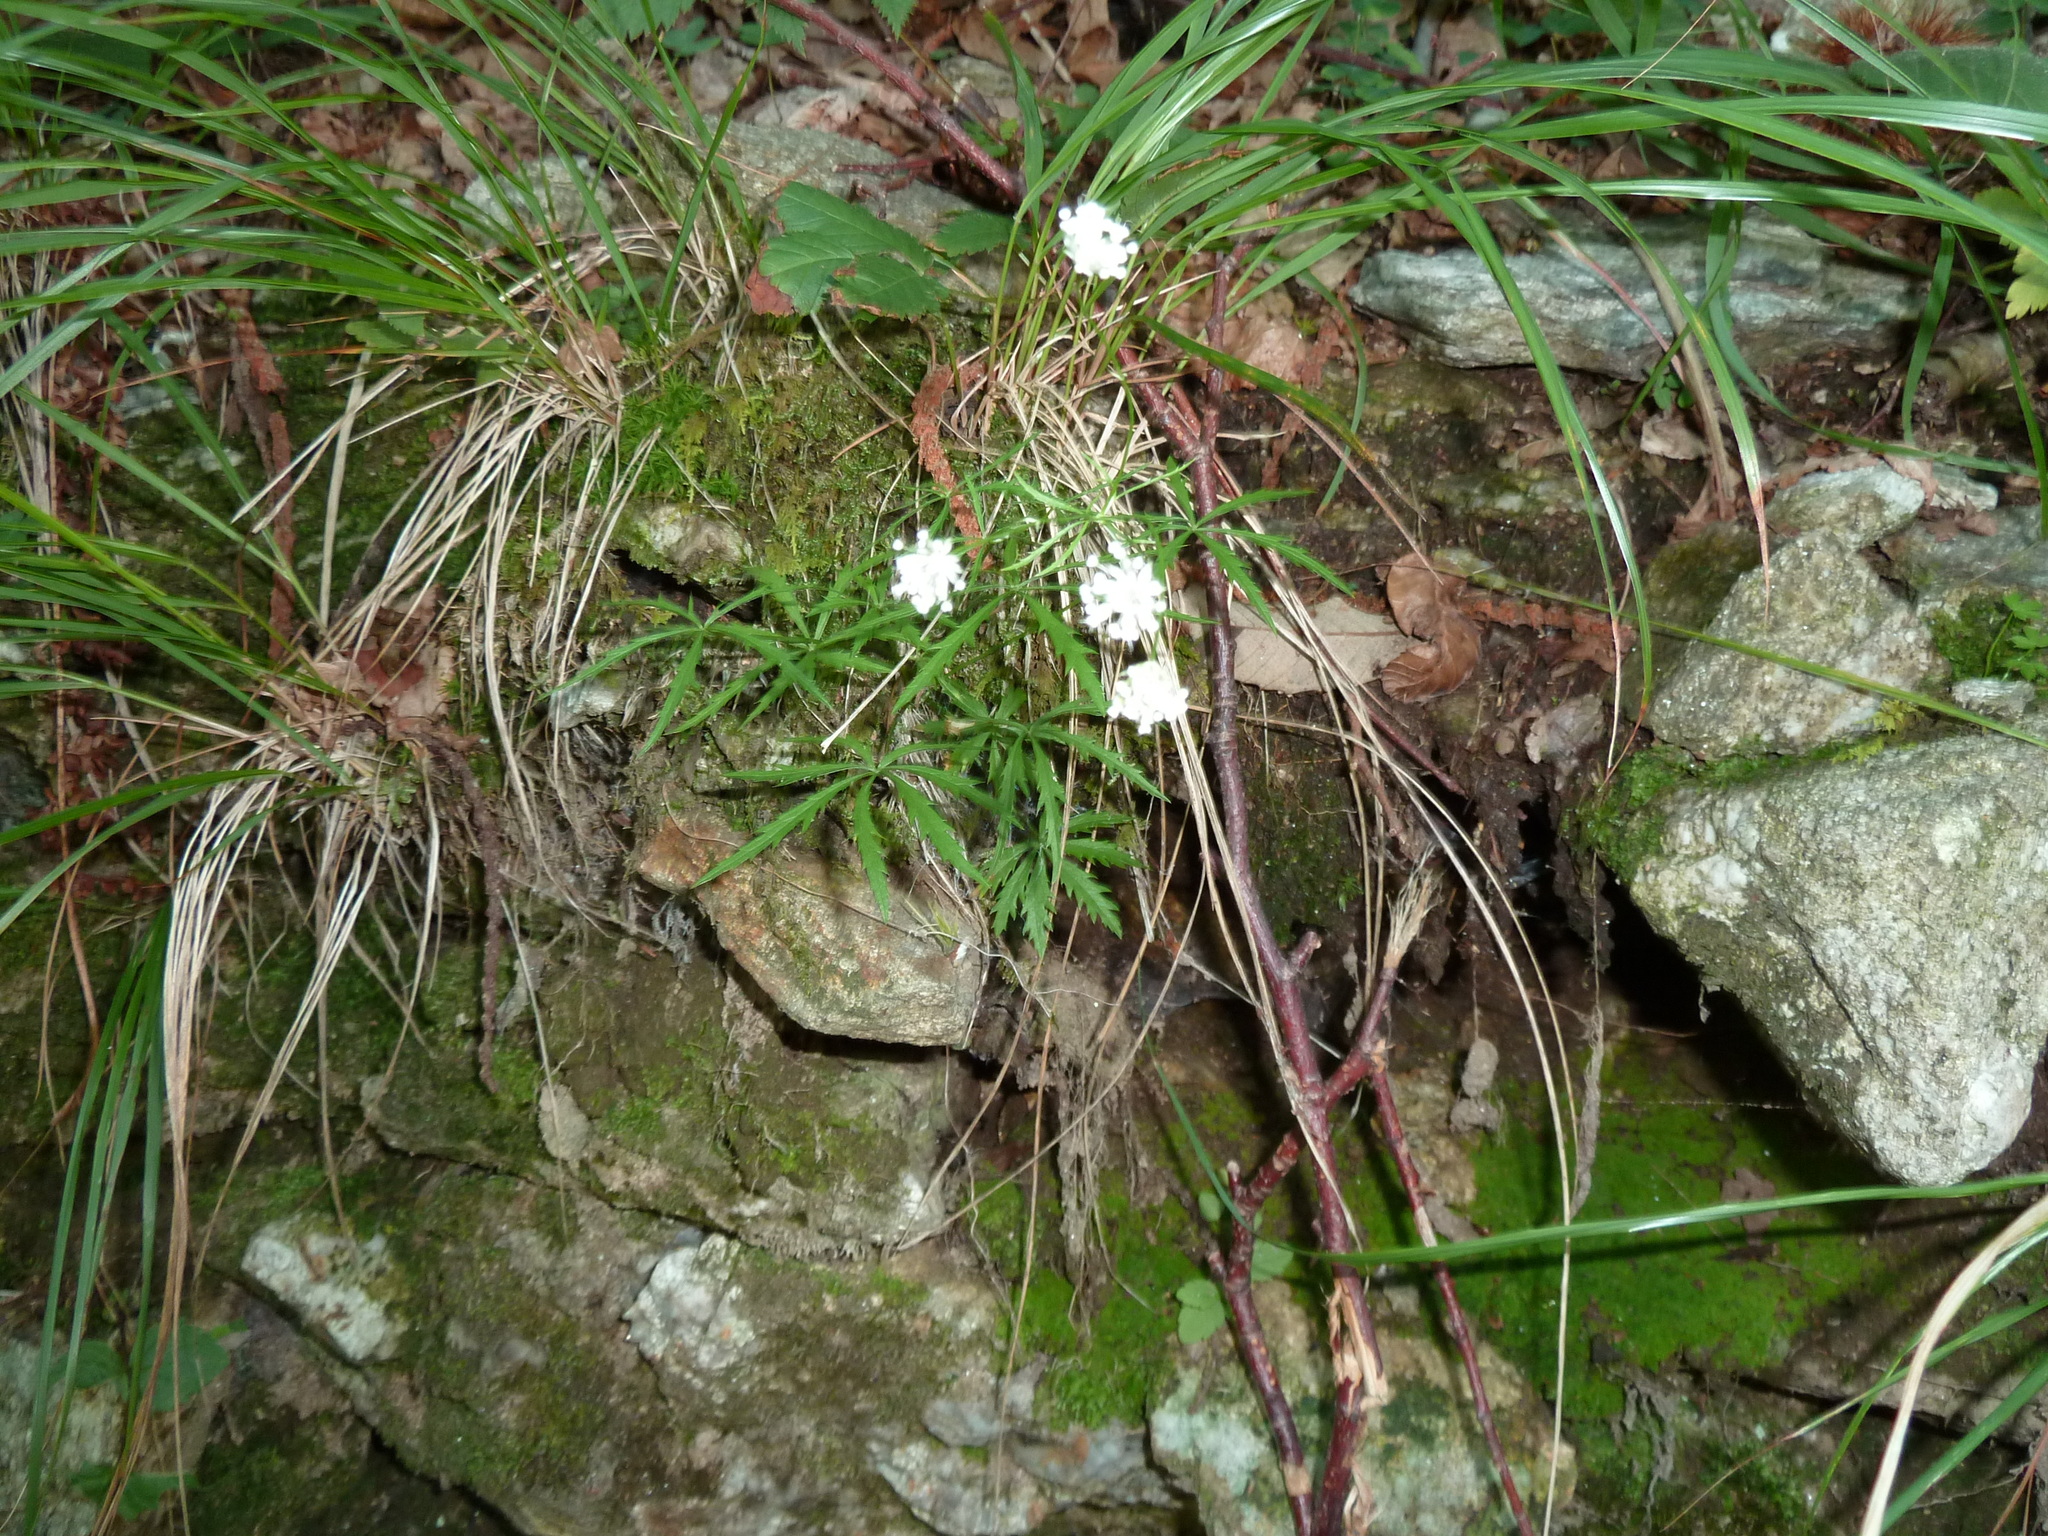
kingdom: Plantae
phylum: Tracheophyta
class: Magnoliopsida
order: Apiales
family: Apiaceae
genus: Astrantia
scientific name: Astrantia minor
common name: Lesser masterwort
